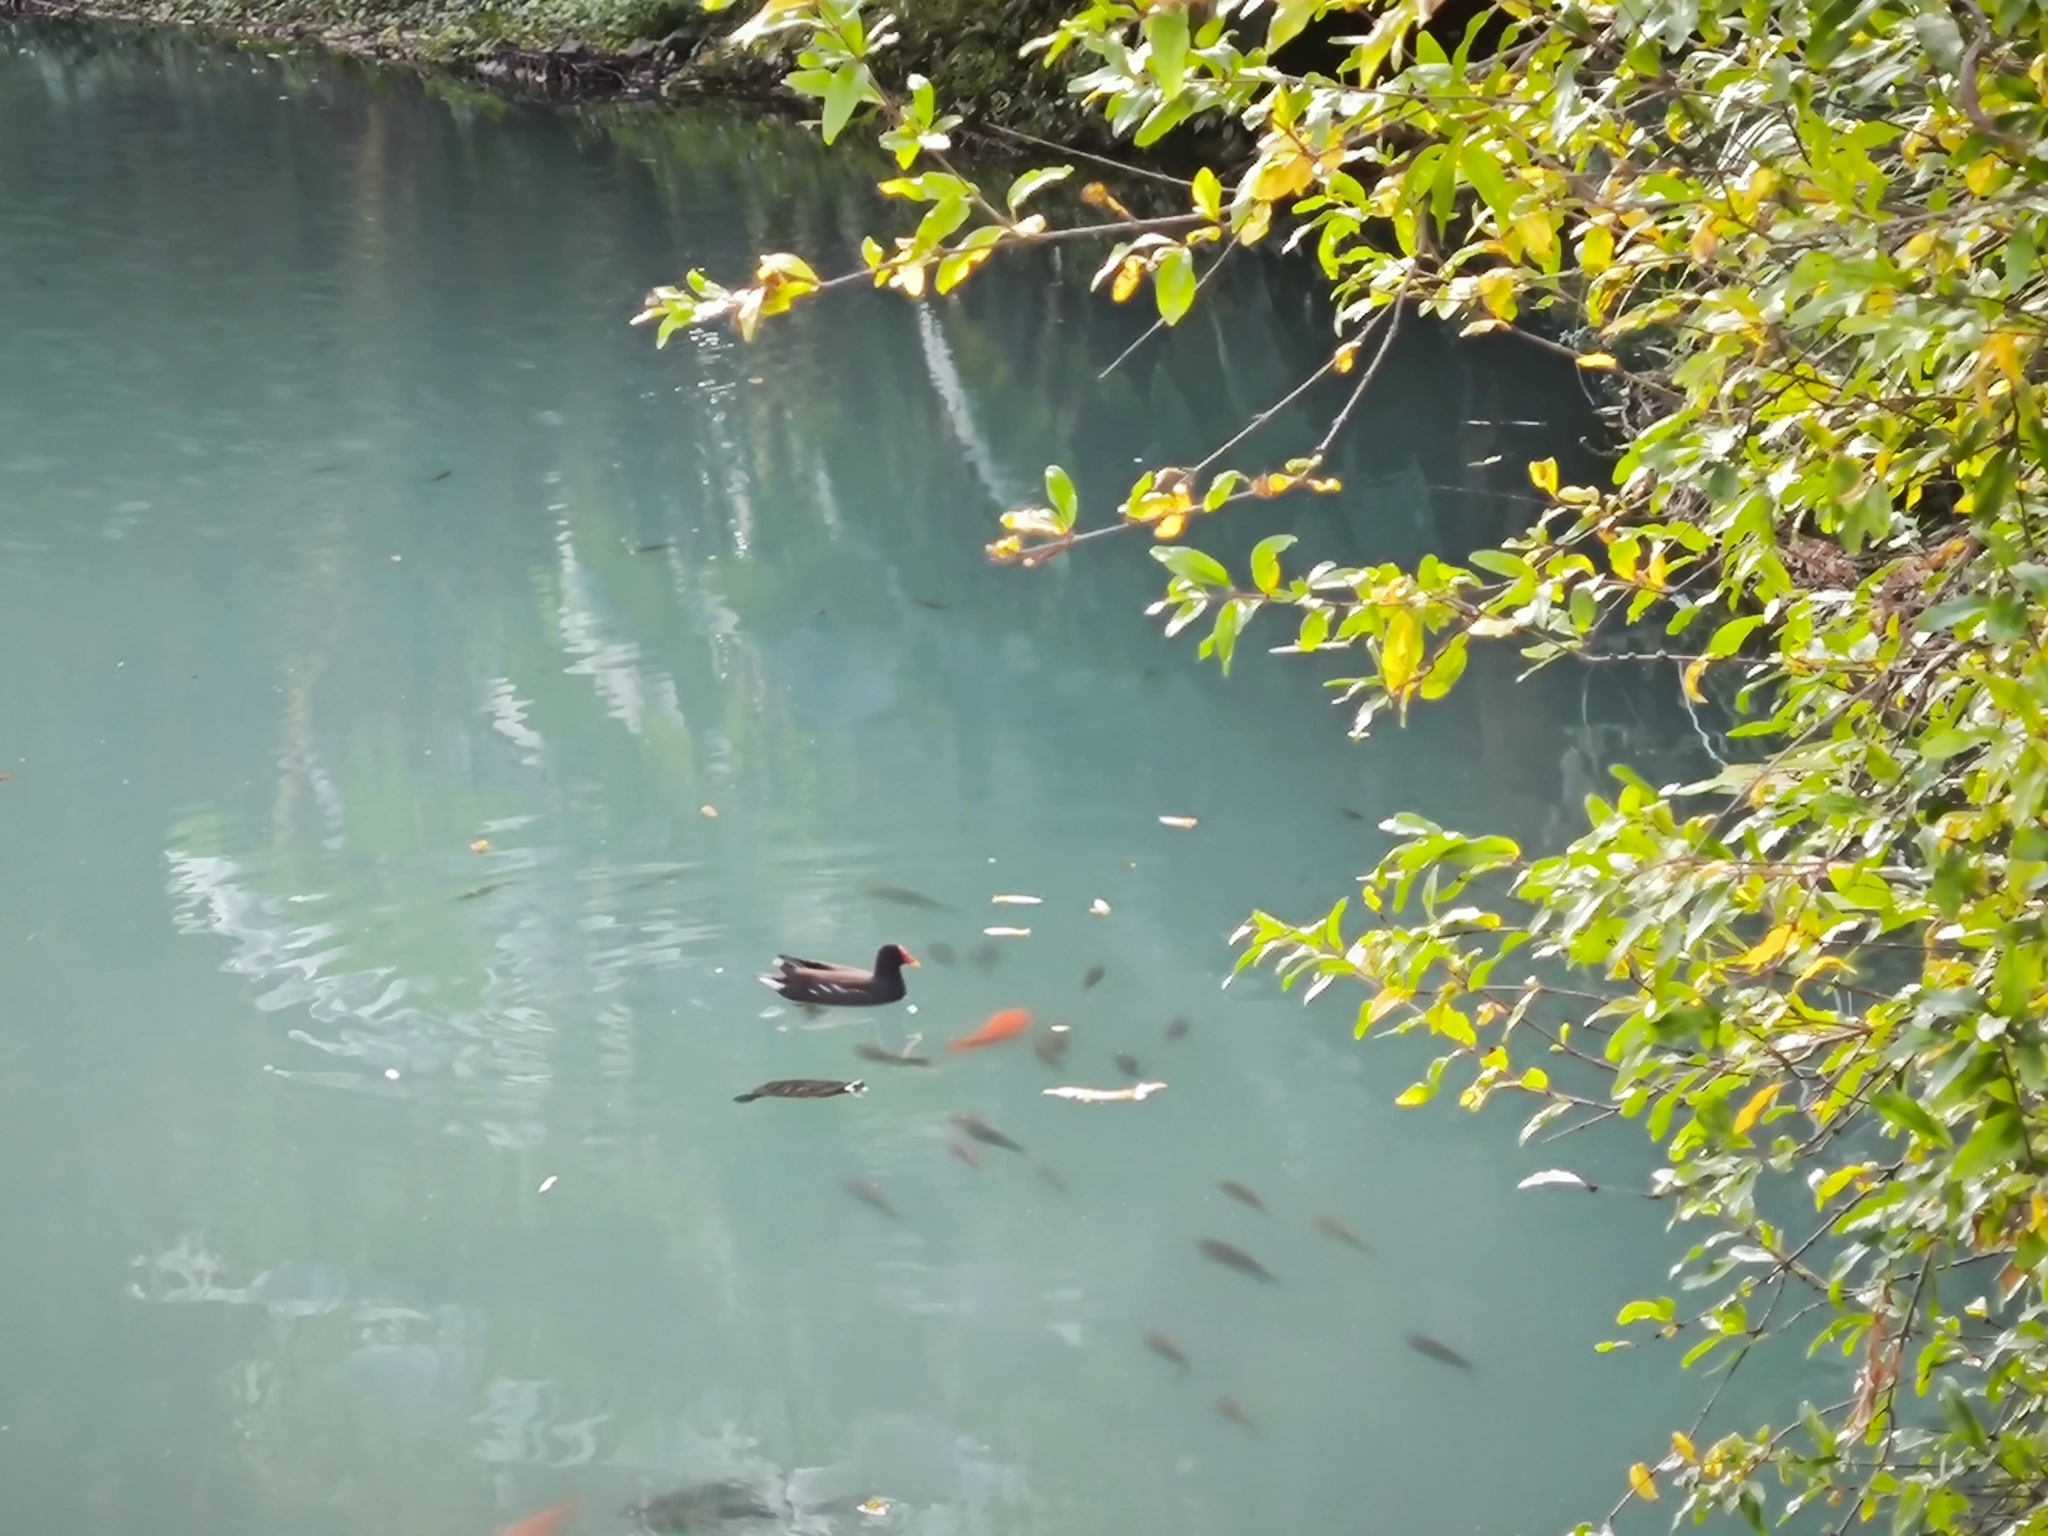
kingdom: Animalia
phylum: Chordata
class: Aves
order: Gruiformes
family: Rallidae
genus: Gallinula
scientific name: Gallinula chloropus
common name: Common moorhen
